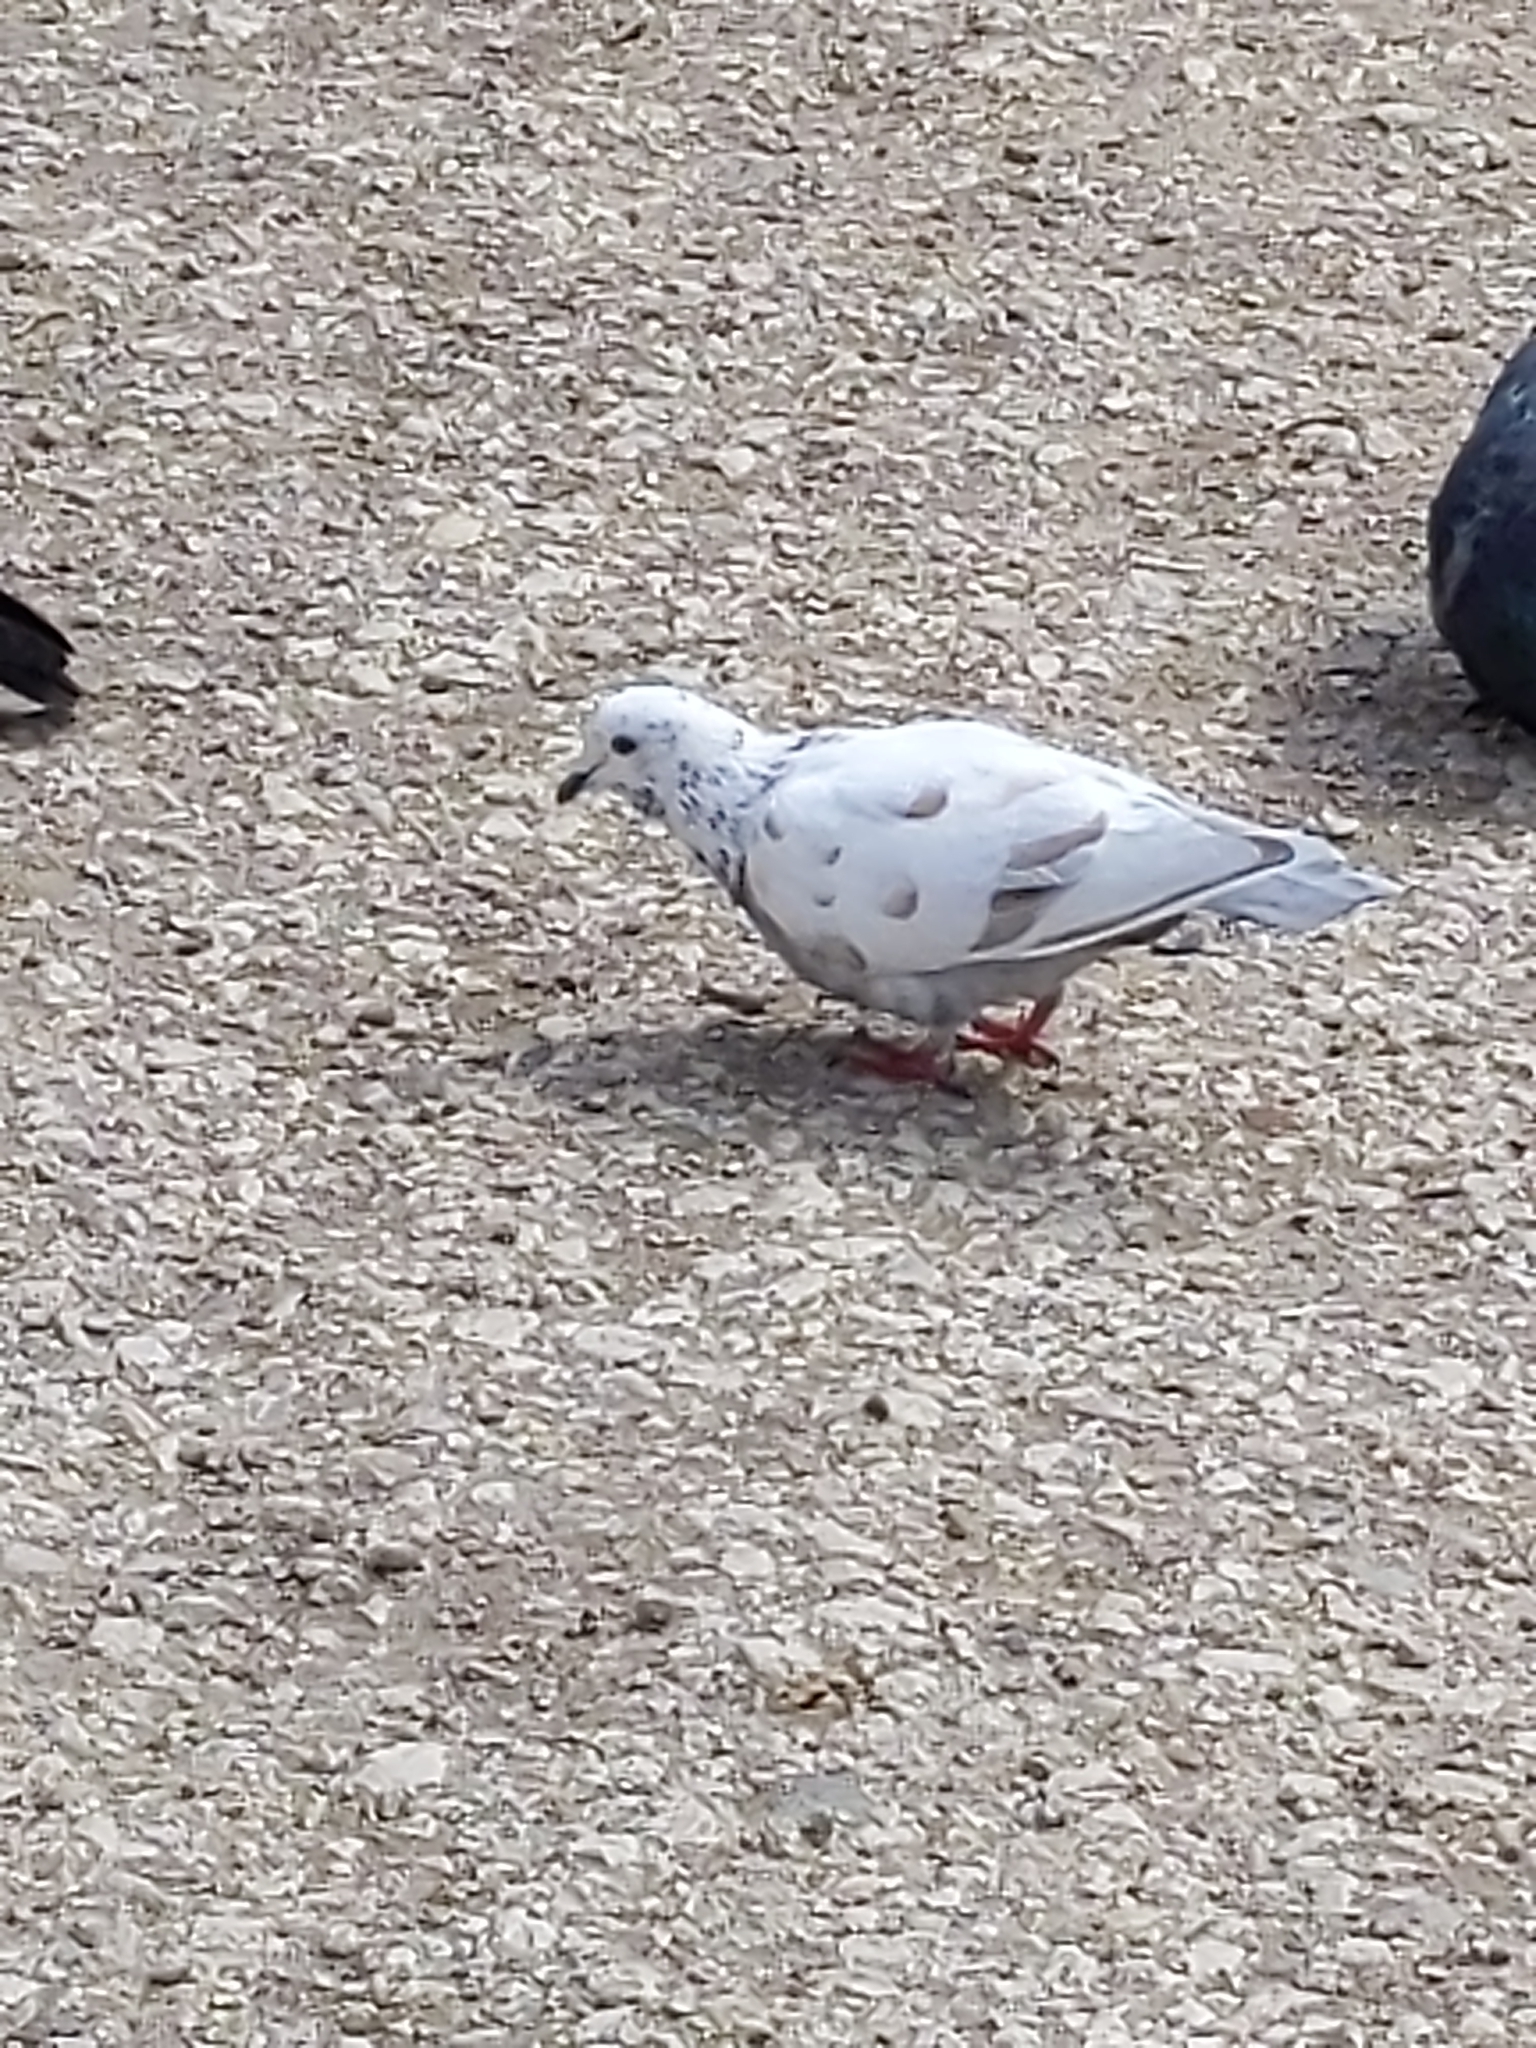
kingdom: Animalia
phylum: Chordata
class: Aves
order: Columbiformes
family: Columbidae
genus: Columba
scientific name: Columba livia
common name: Rock pigeon
